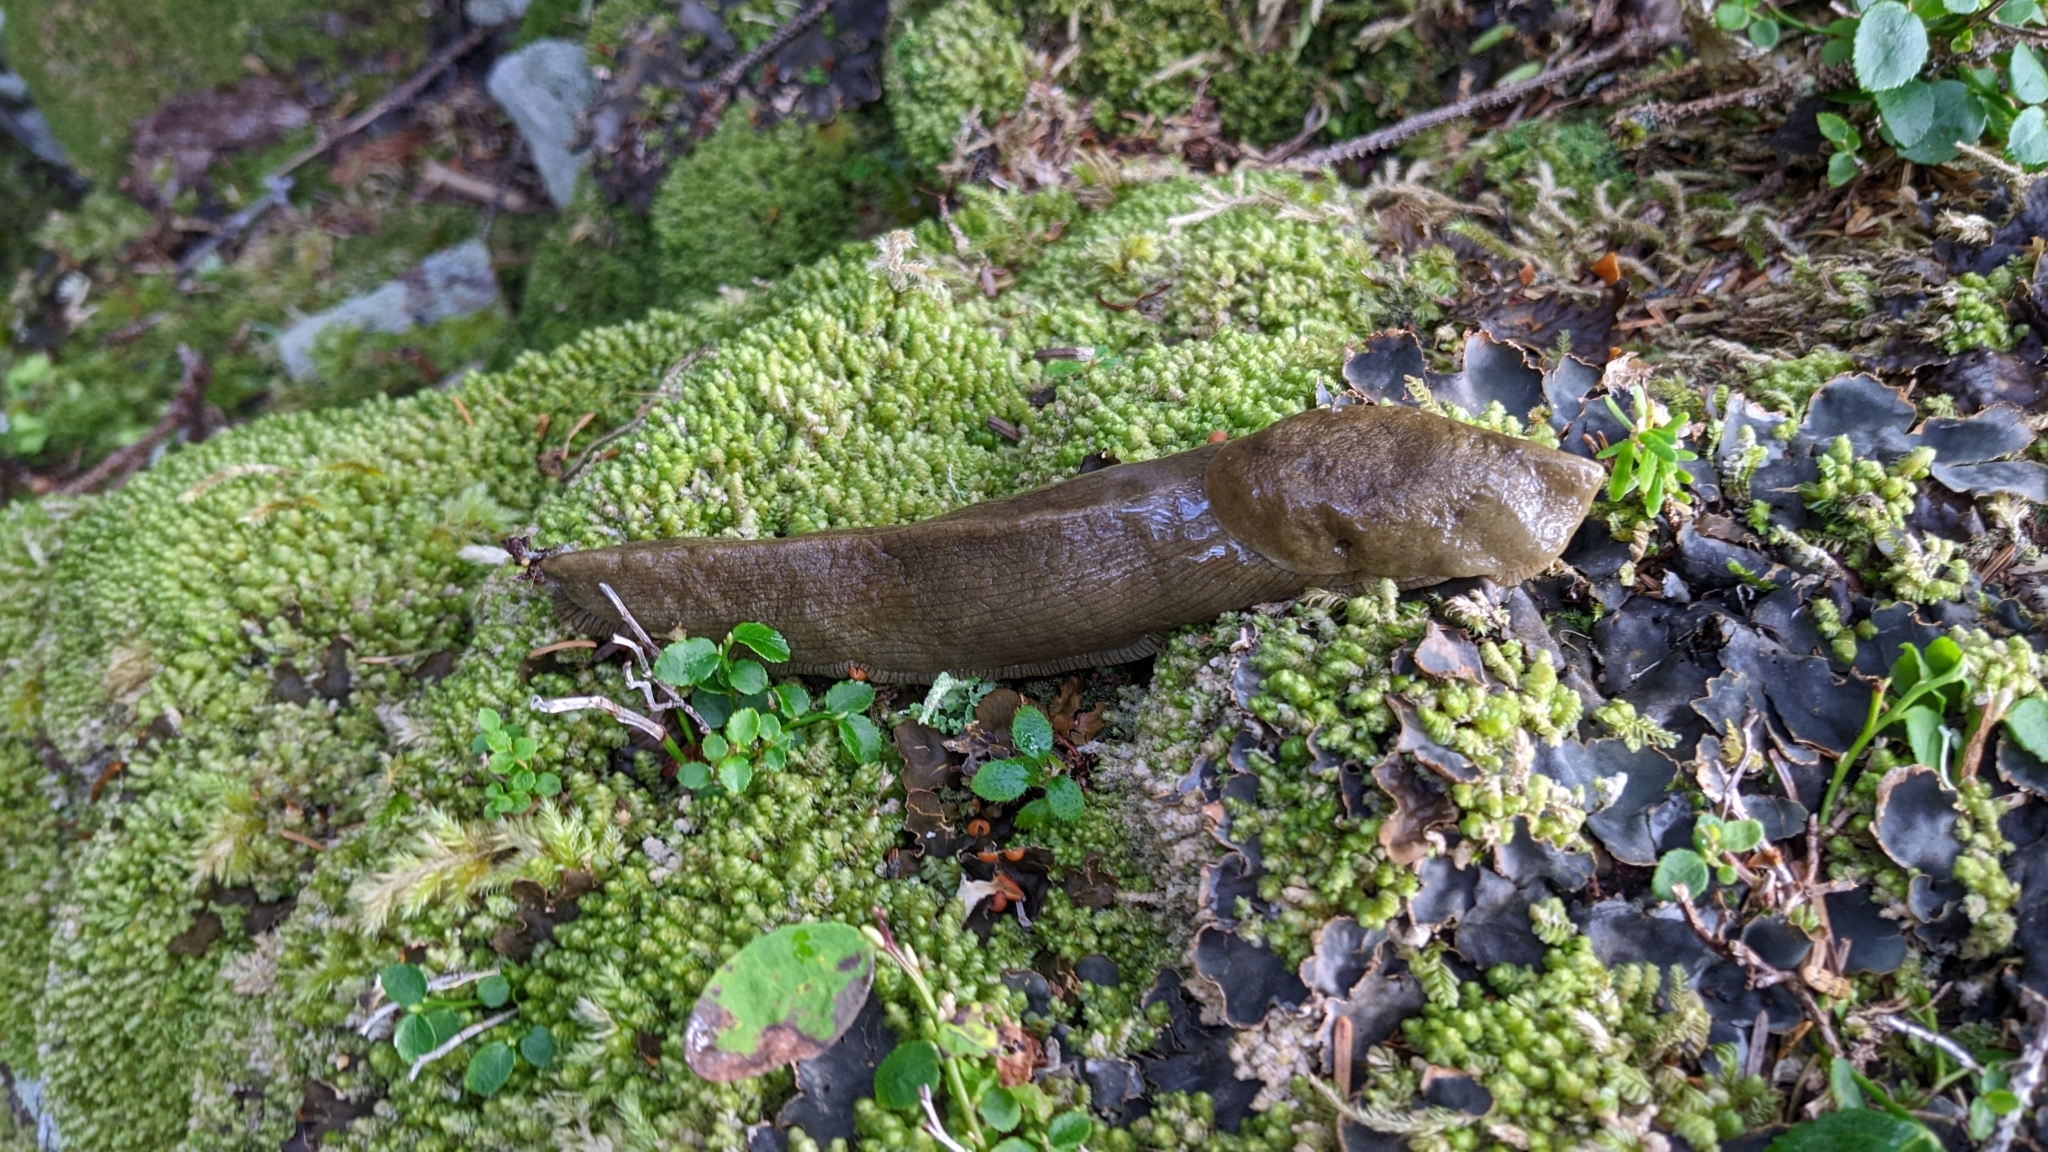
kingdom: Animalia
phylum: Mollusca
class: Gastropoda
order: Stylommatophora
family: Ariolimacidae
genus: Ariolimax
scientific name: Ariolimax columbianus
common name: Pacific banana slug
